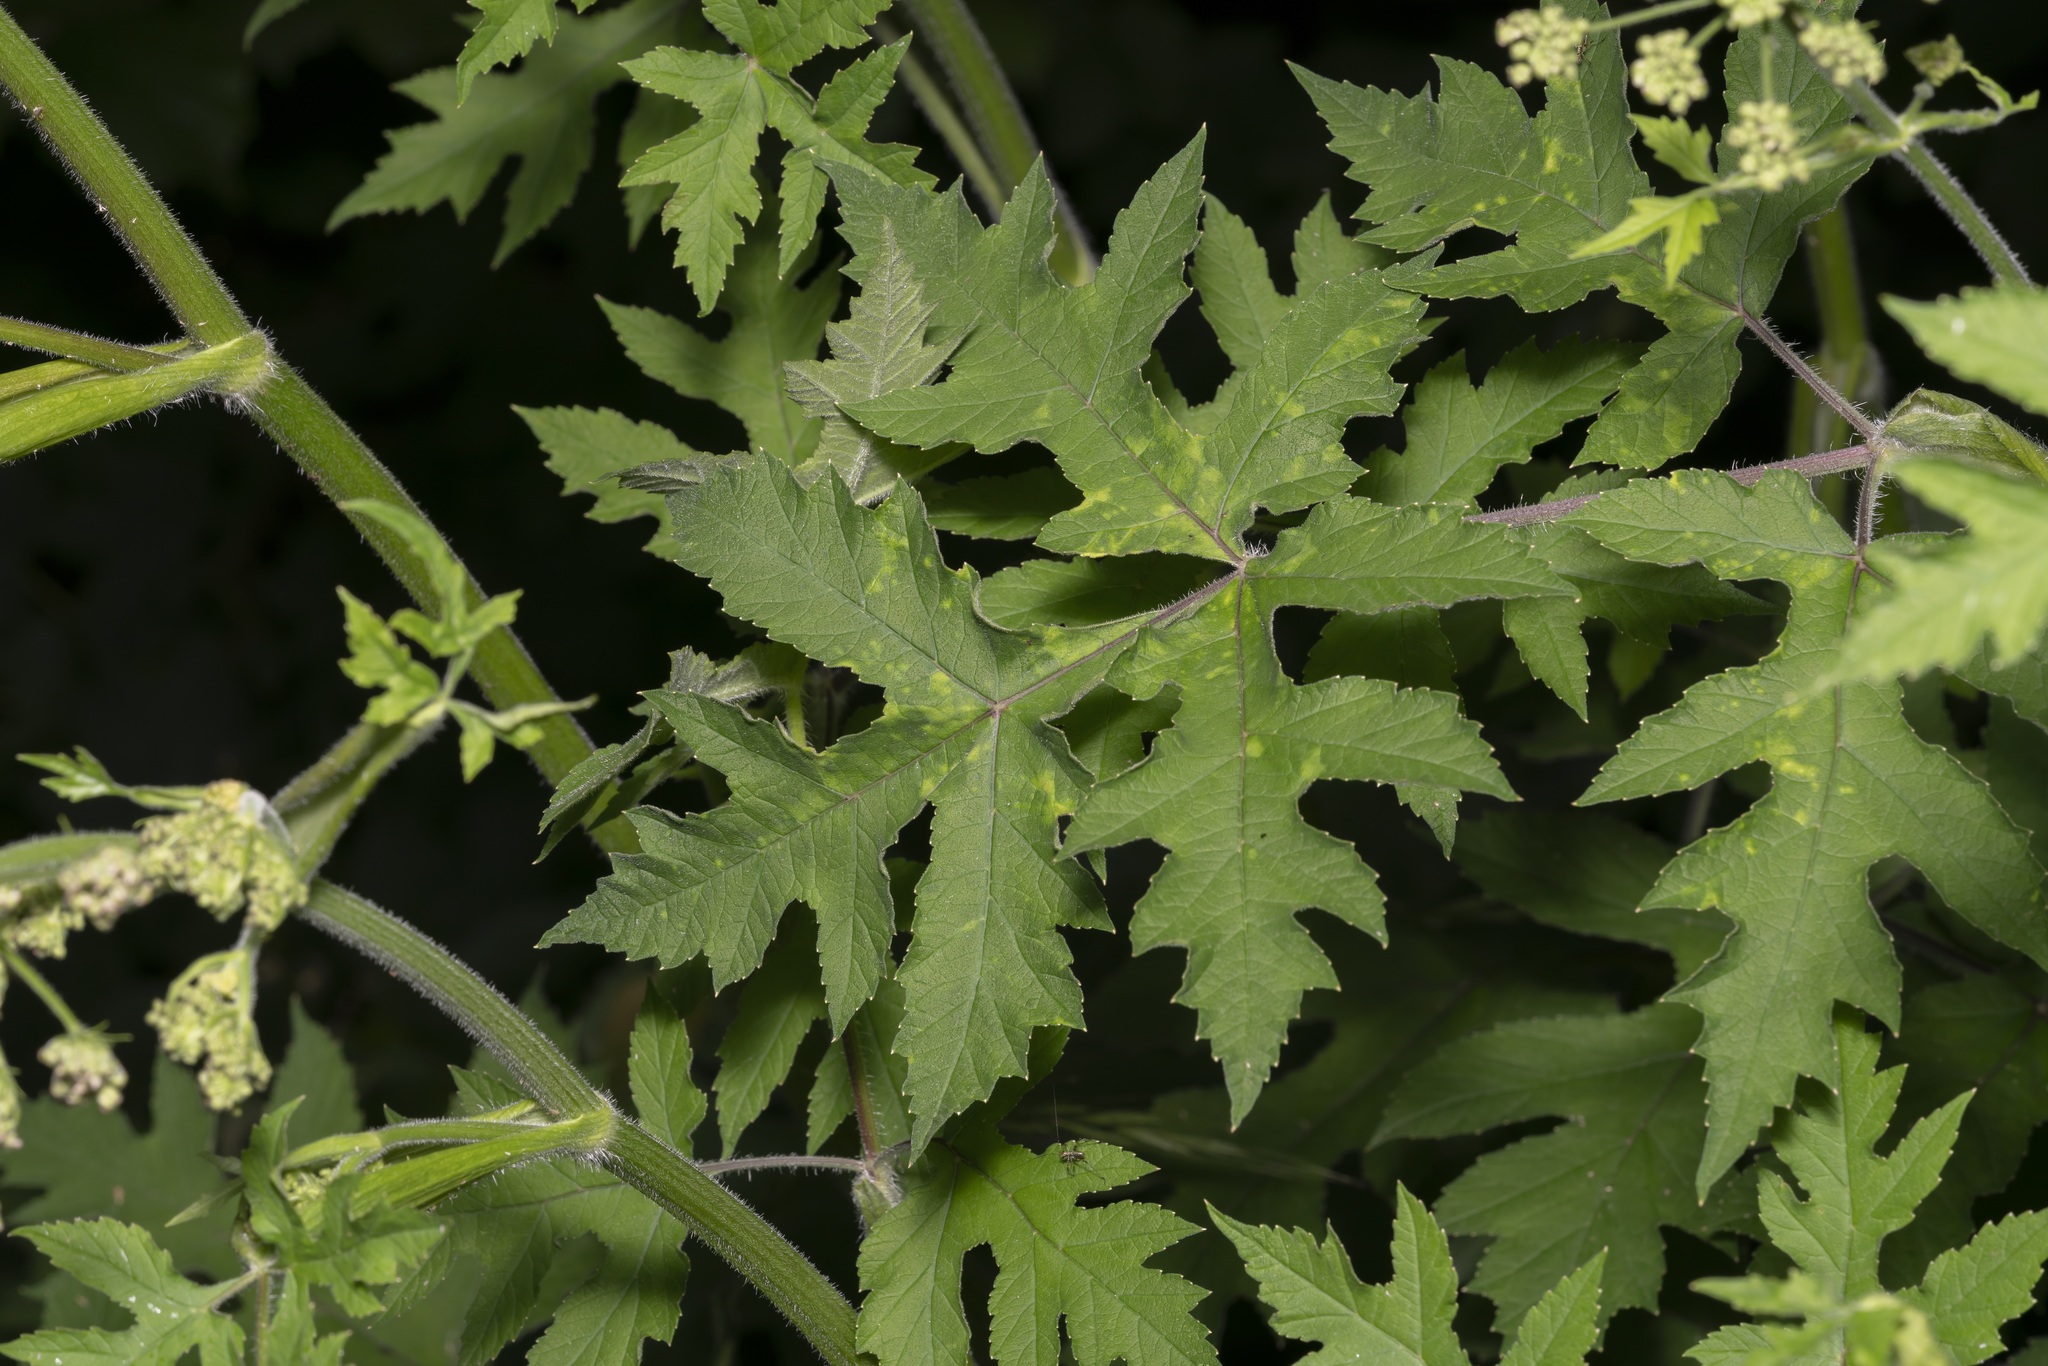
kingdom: Plantae
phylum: Tracheophyta
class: Magnoliopsida
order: Apiales
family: Apiaceae
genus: Heracleum
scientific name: Heracleum sphondylium
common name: Hogweed
